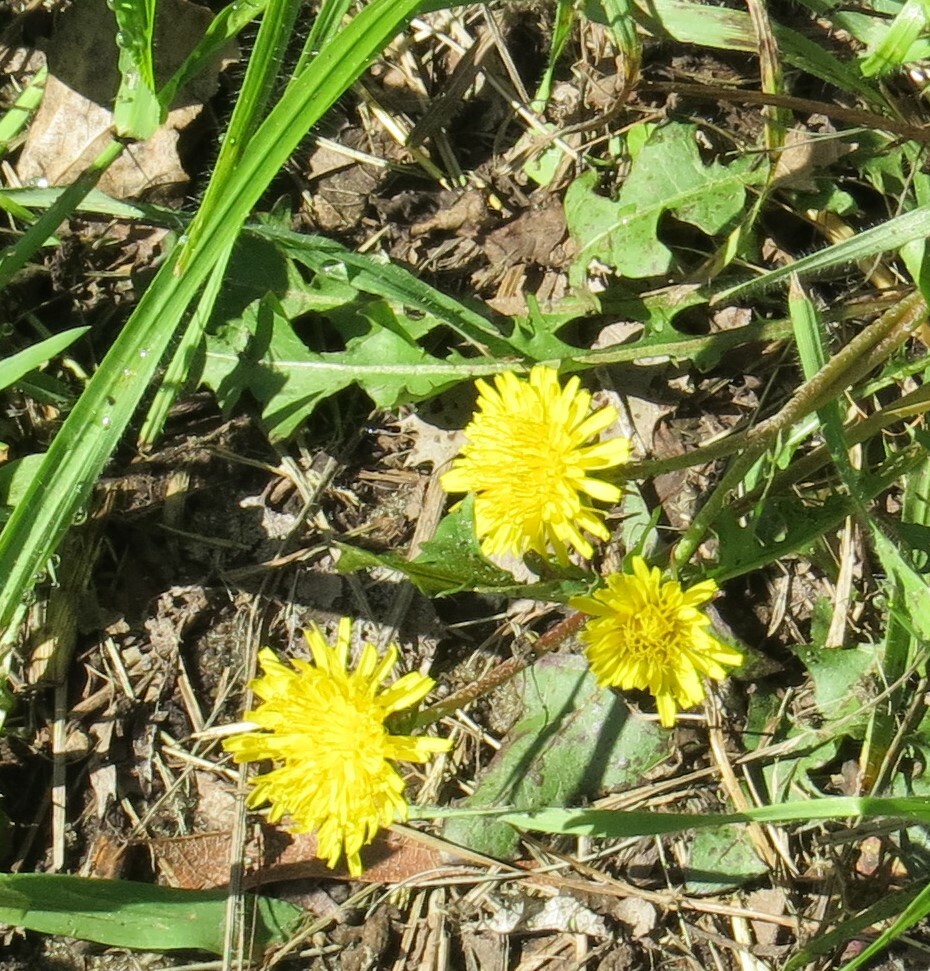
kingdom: Plantae
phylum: Tracheophyta
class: Magnoliopsida
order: Asterales
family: Asteraceae
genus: Taraxacum
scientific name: Taraxacum officinale
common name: Common dandelion
